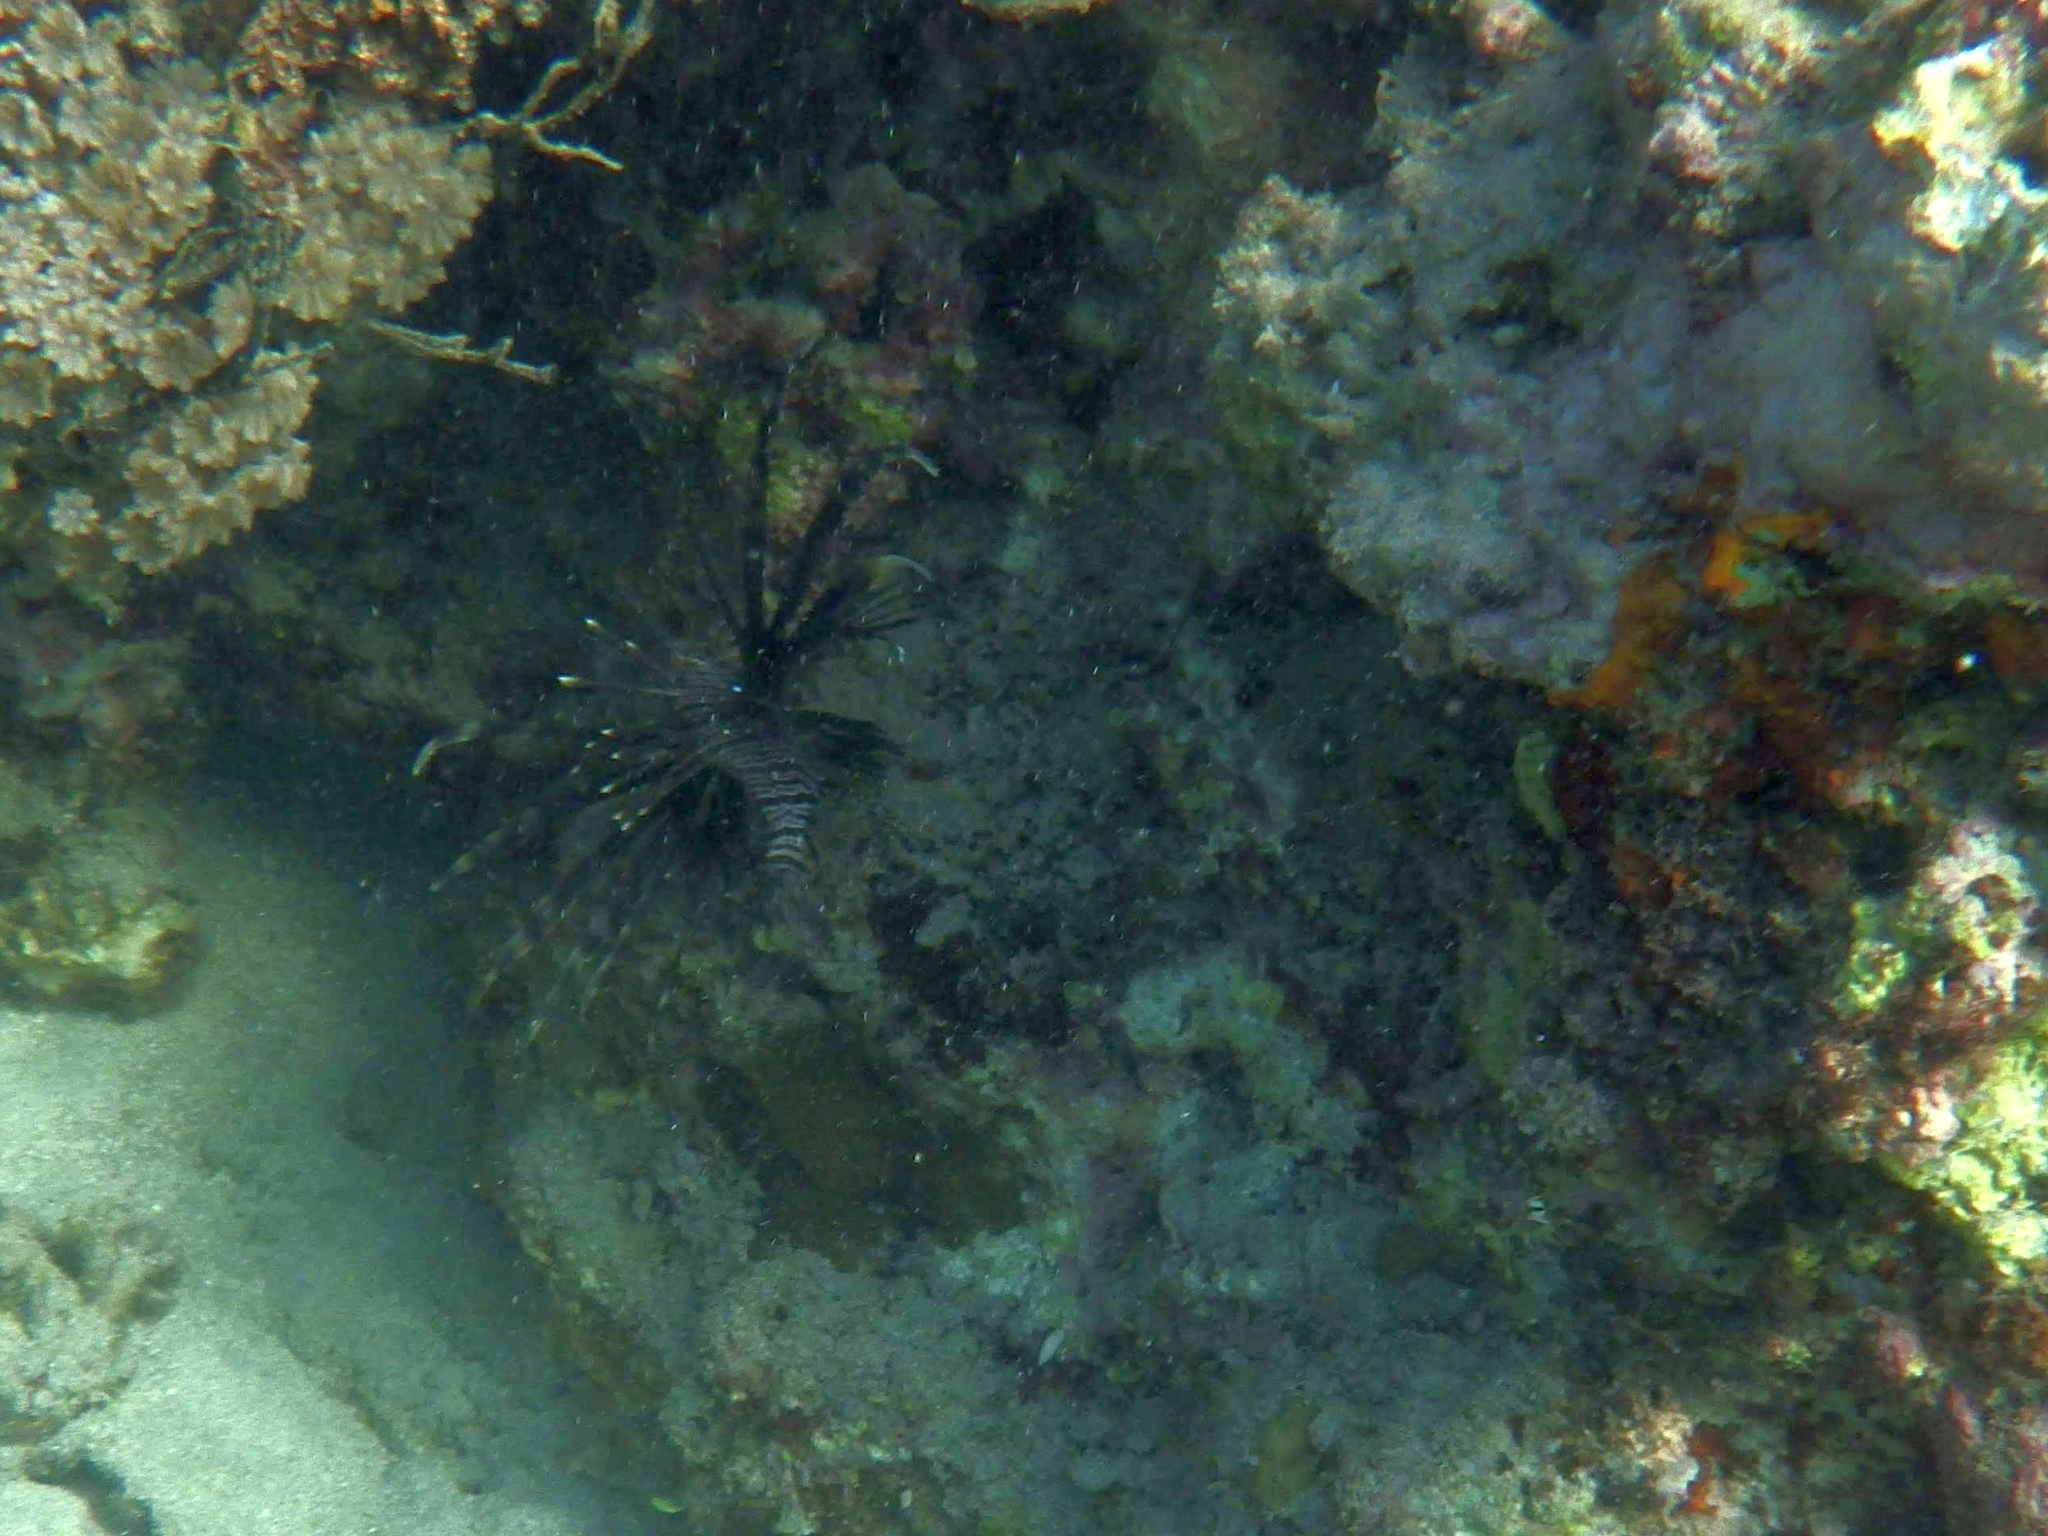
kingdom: Animalia
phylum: Chordata
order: Scorpaeniformes
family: Scorpaenidae
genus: Pterois
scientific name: Pterois volitans
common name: Lionfish
